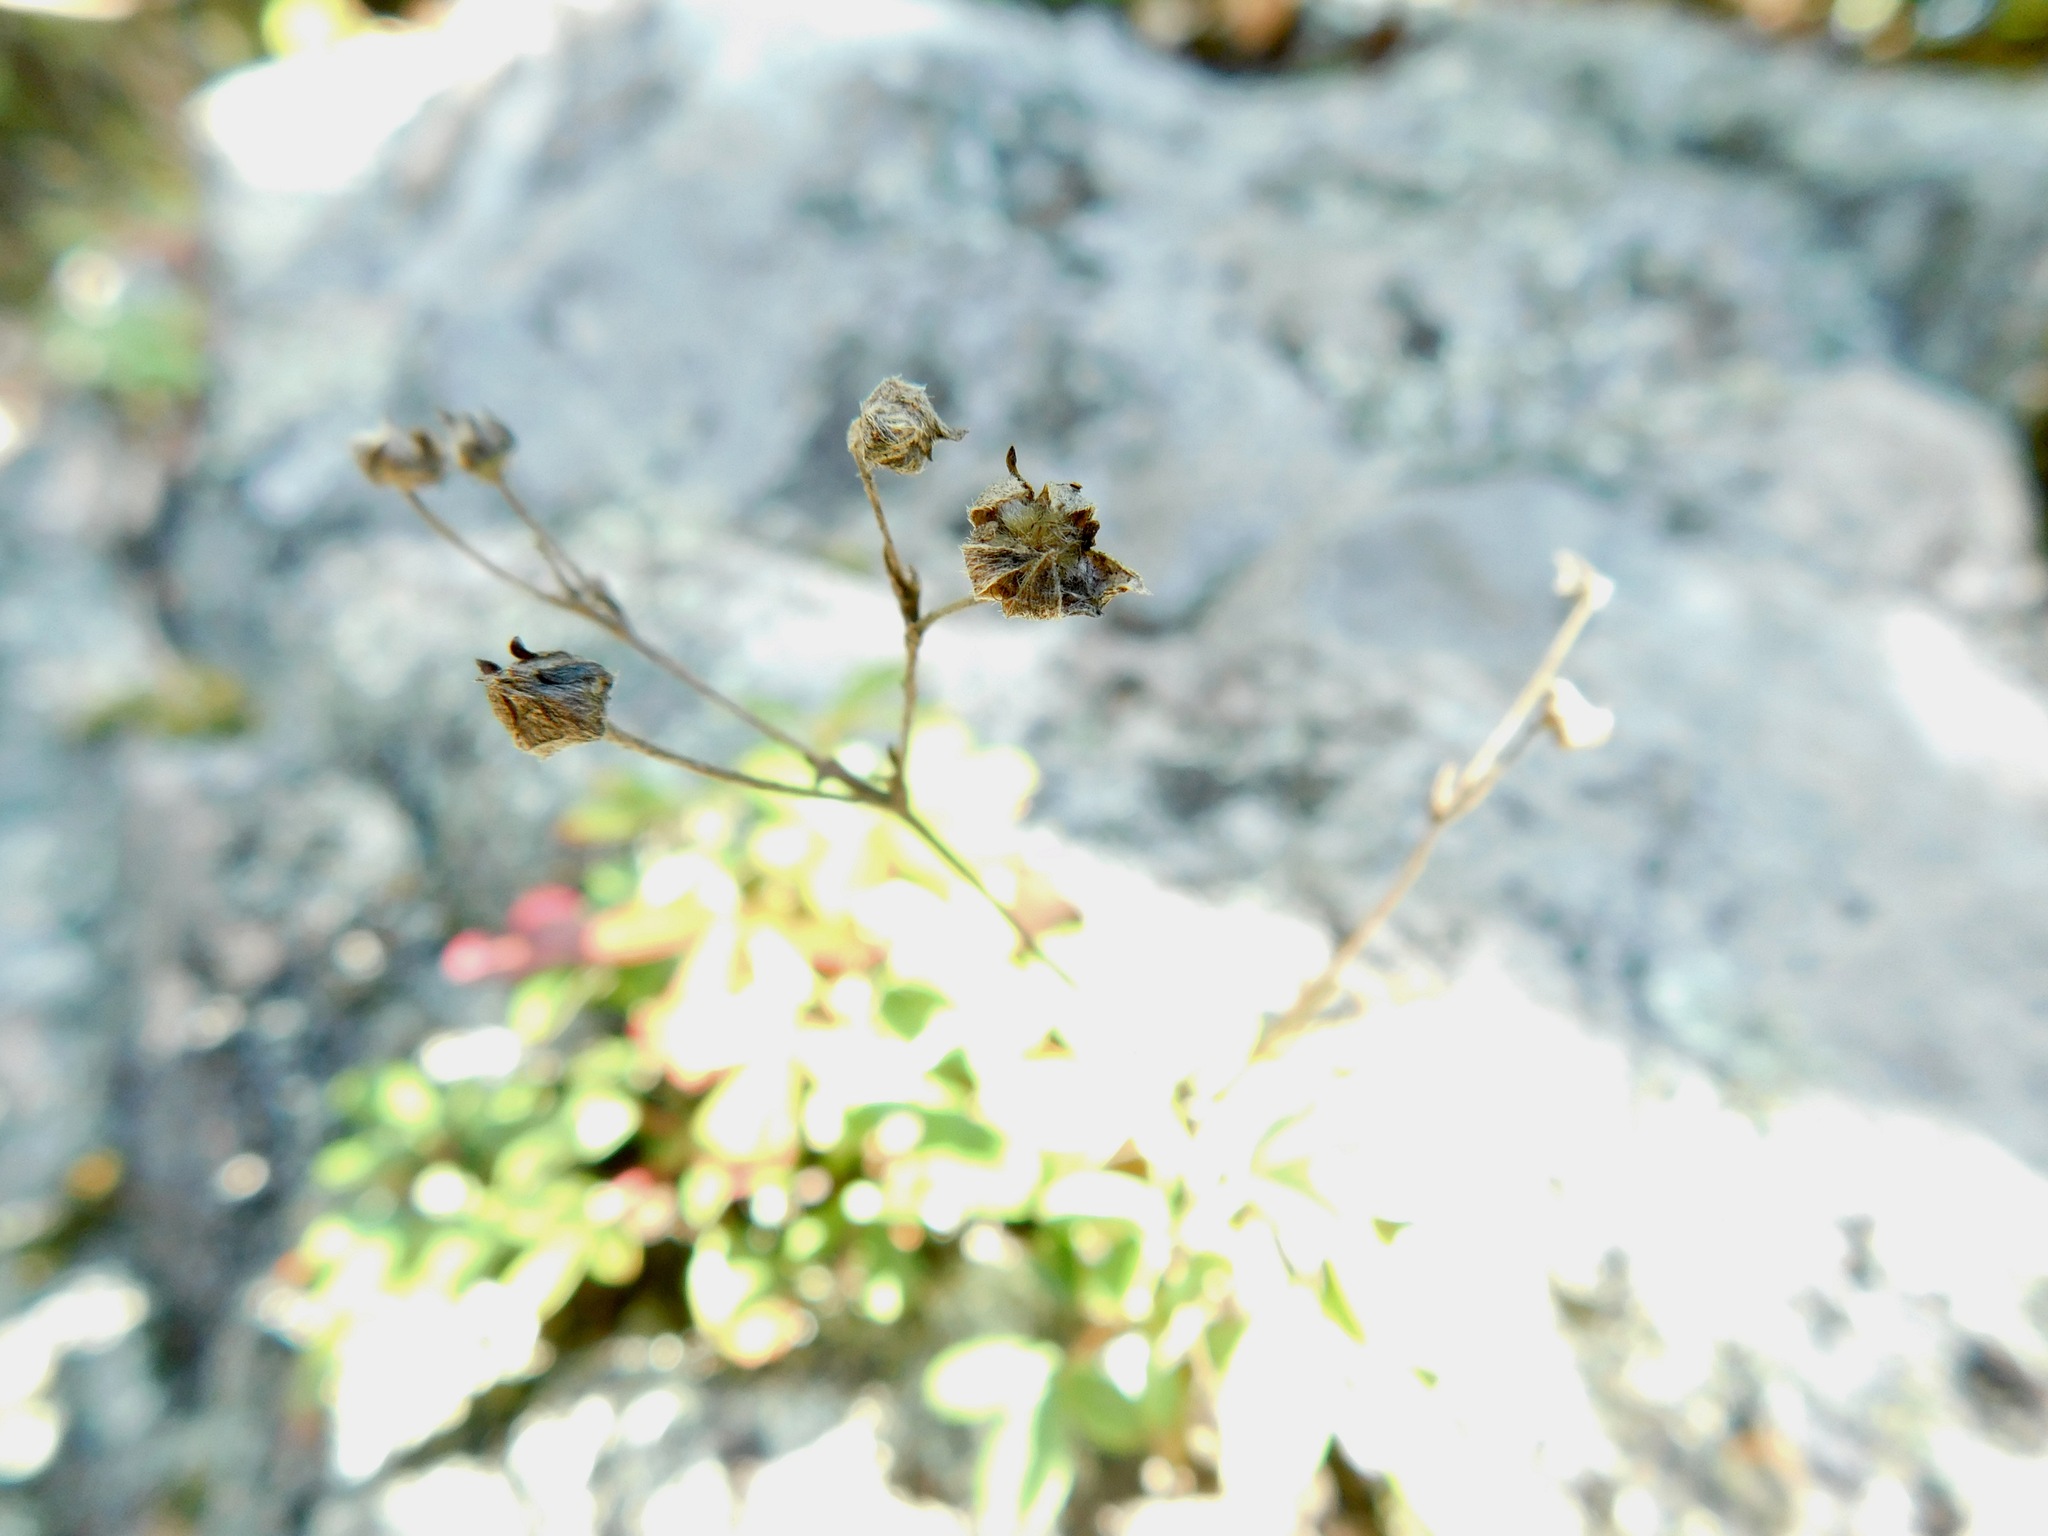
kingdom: Plantae
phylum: Tracheophyta
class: Magnoliopsida
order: Rosales
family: Rosaceae
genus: Sibbaldia
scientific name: Sibbaldia tridentata
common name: Three-toothed cinquefoil
